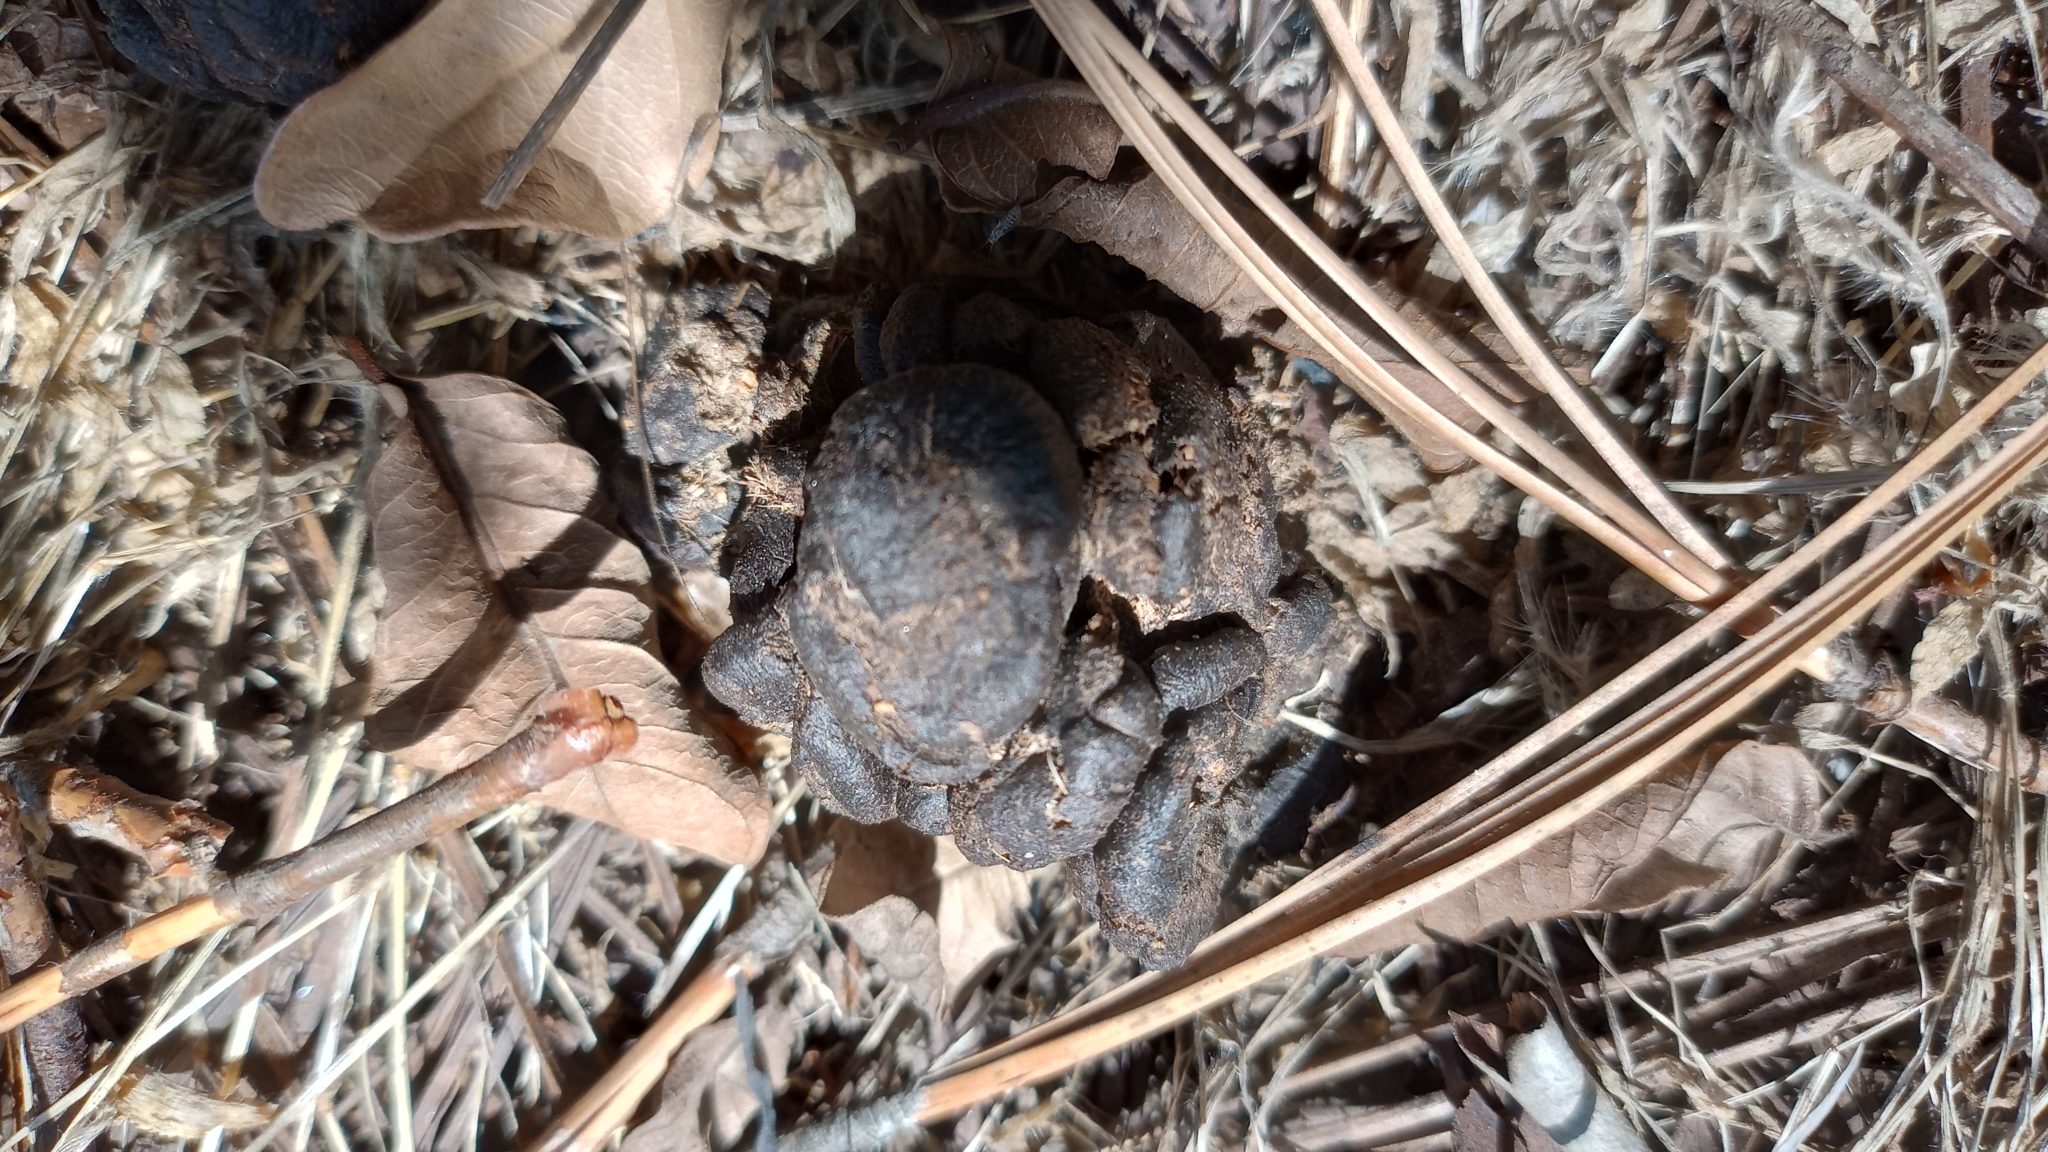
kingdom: Animalia
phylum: Chordata
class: Mammalia
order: Artiodactyla
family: Bovidae
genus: Bos
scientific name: Bos taurus
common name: Domesticated cattle
